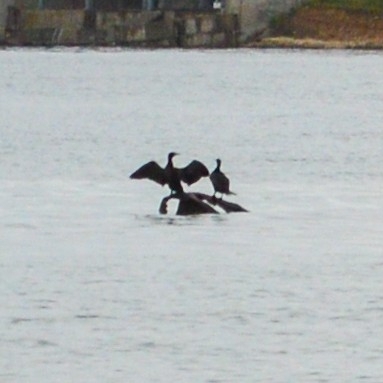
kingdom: Animalia
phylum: Chordata
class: Aves
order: Suliformes
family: Phalacrocoracidae
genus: Phalacrocorax
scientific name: Phalacrocorax carbo
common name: Great cormorant
